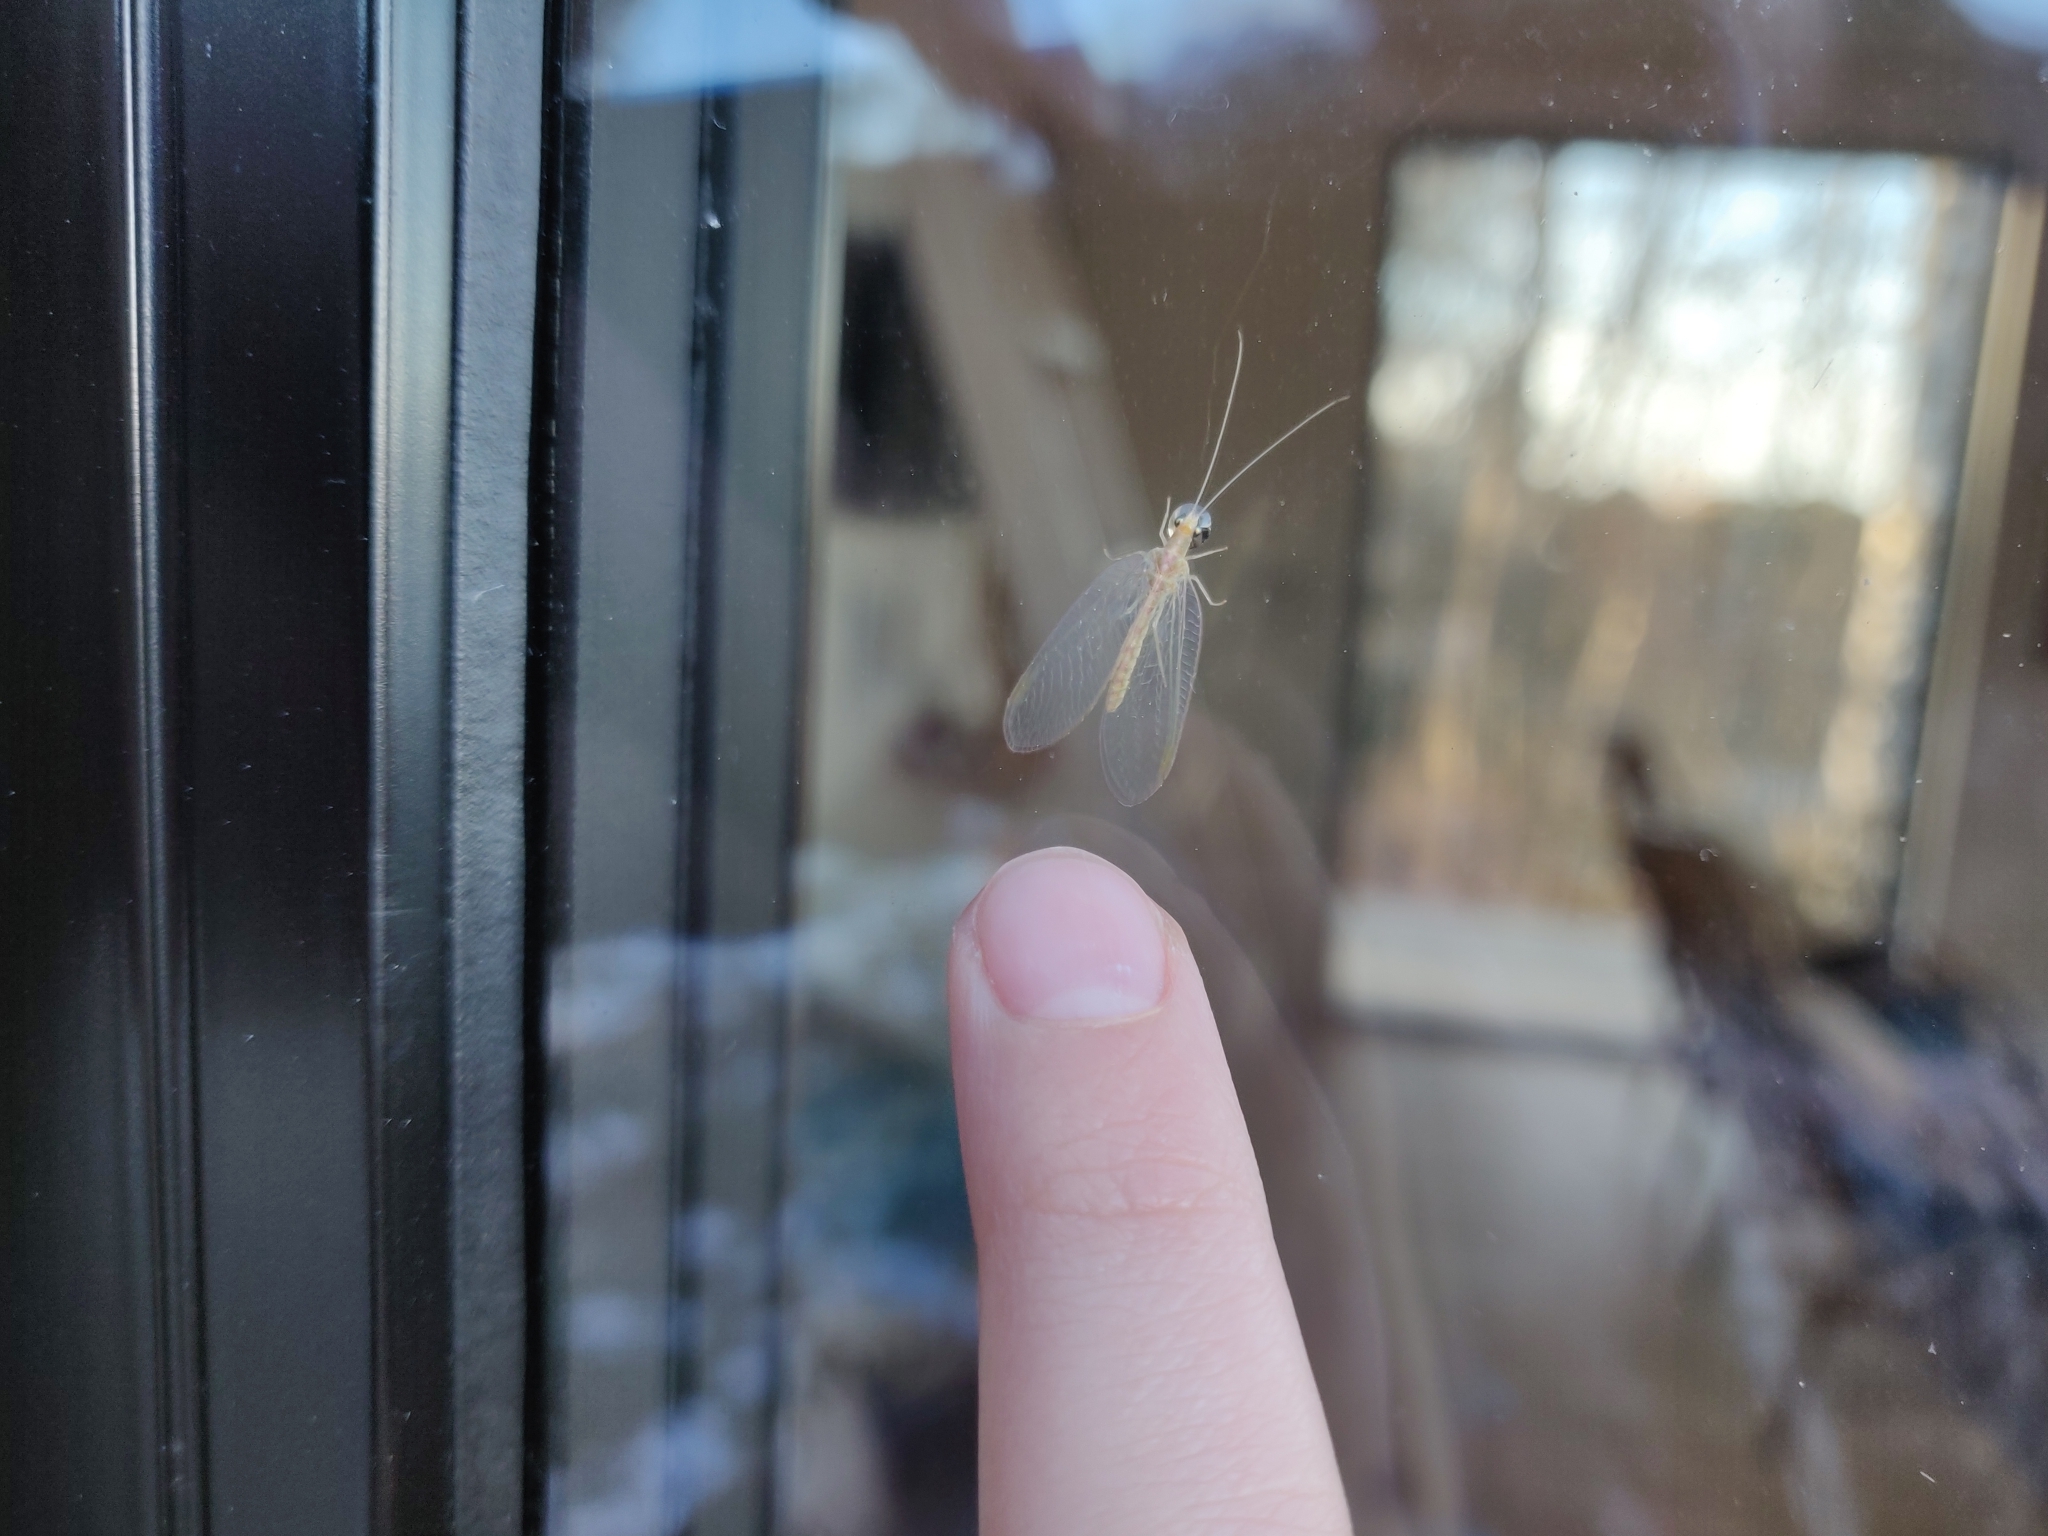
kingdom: Animalia
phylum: Arthropoda
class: Insecta
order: Neuroptera
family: Chrysopidae
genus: Chrysoperla
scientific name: Chrysoperla
